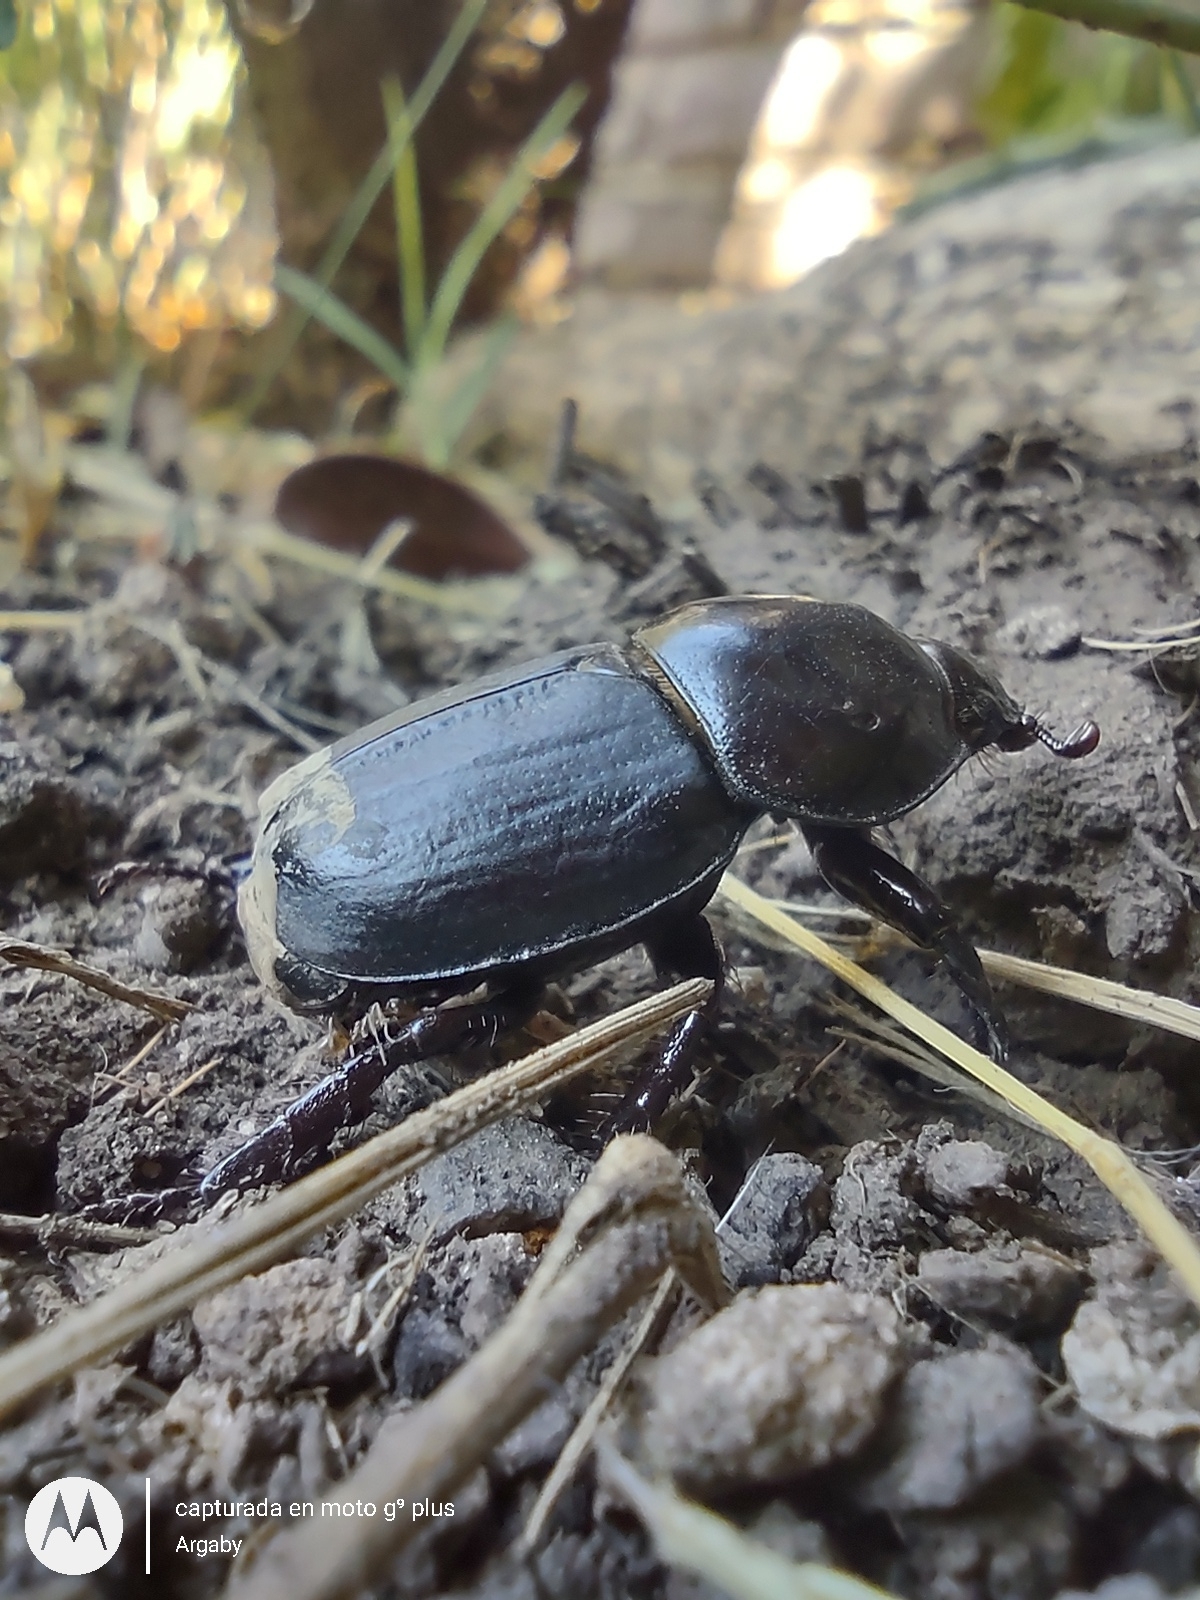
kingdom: Animalia
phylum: Arthropoda
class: Insecta
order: Coleoptera
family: Scarabaeidae
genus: Diloboderus
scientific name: Diloboderus abderus
